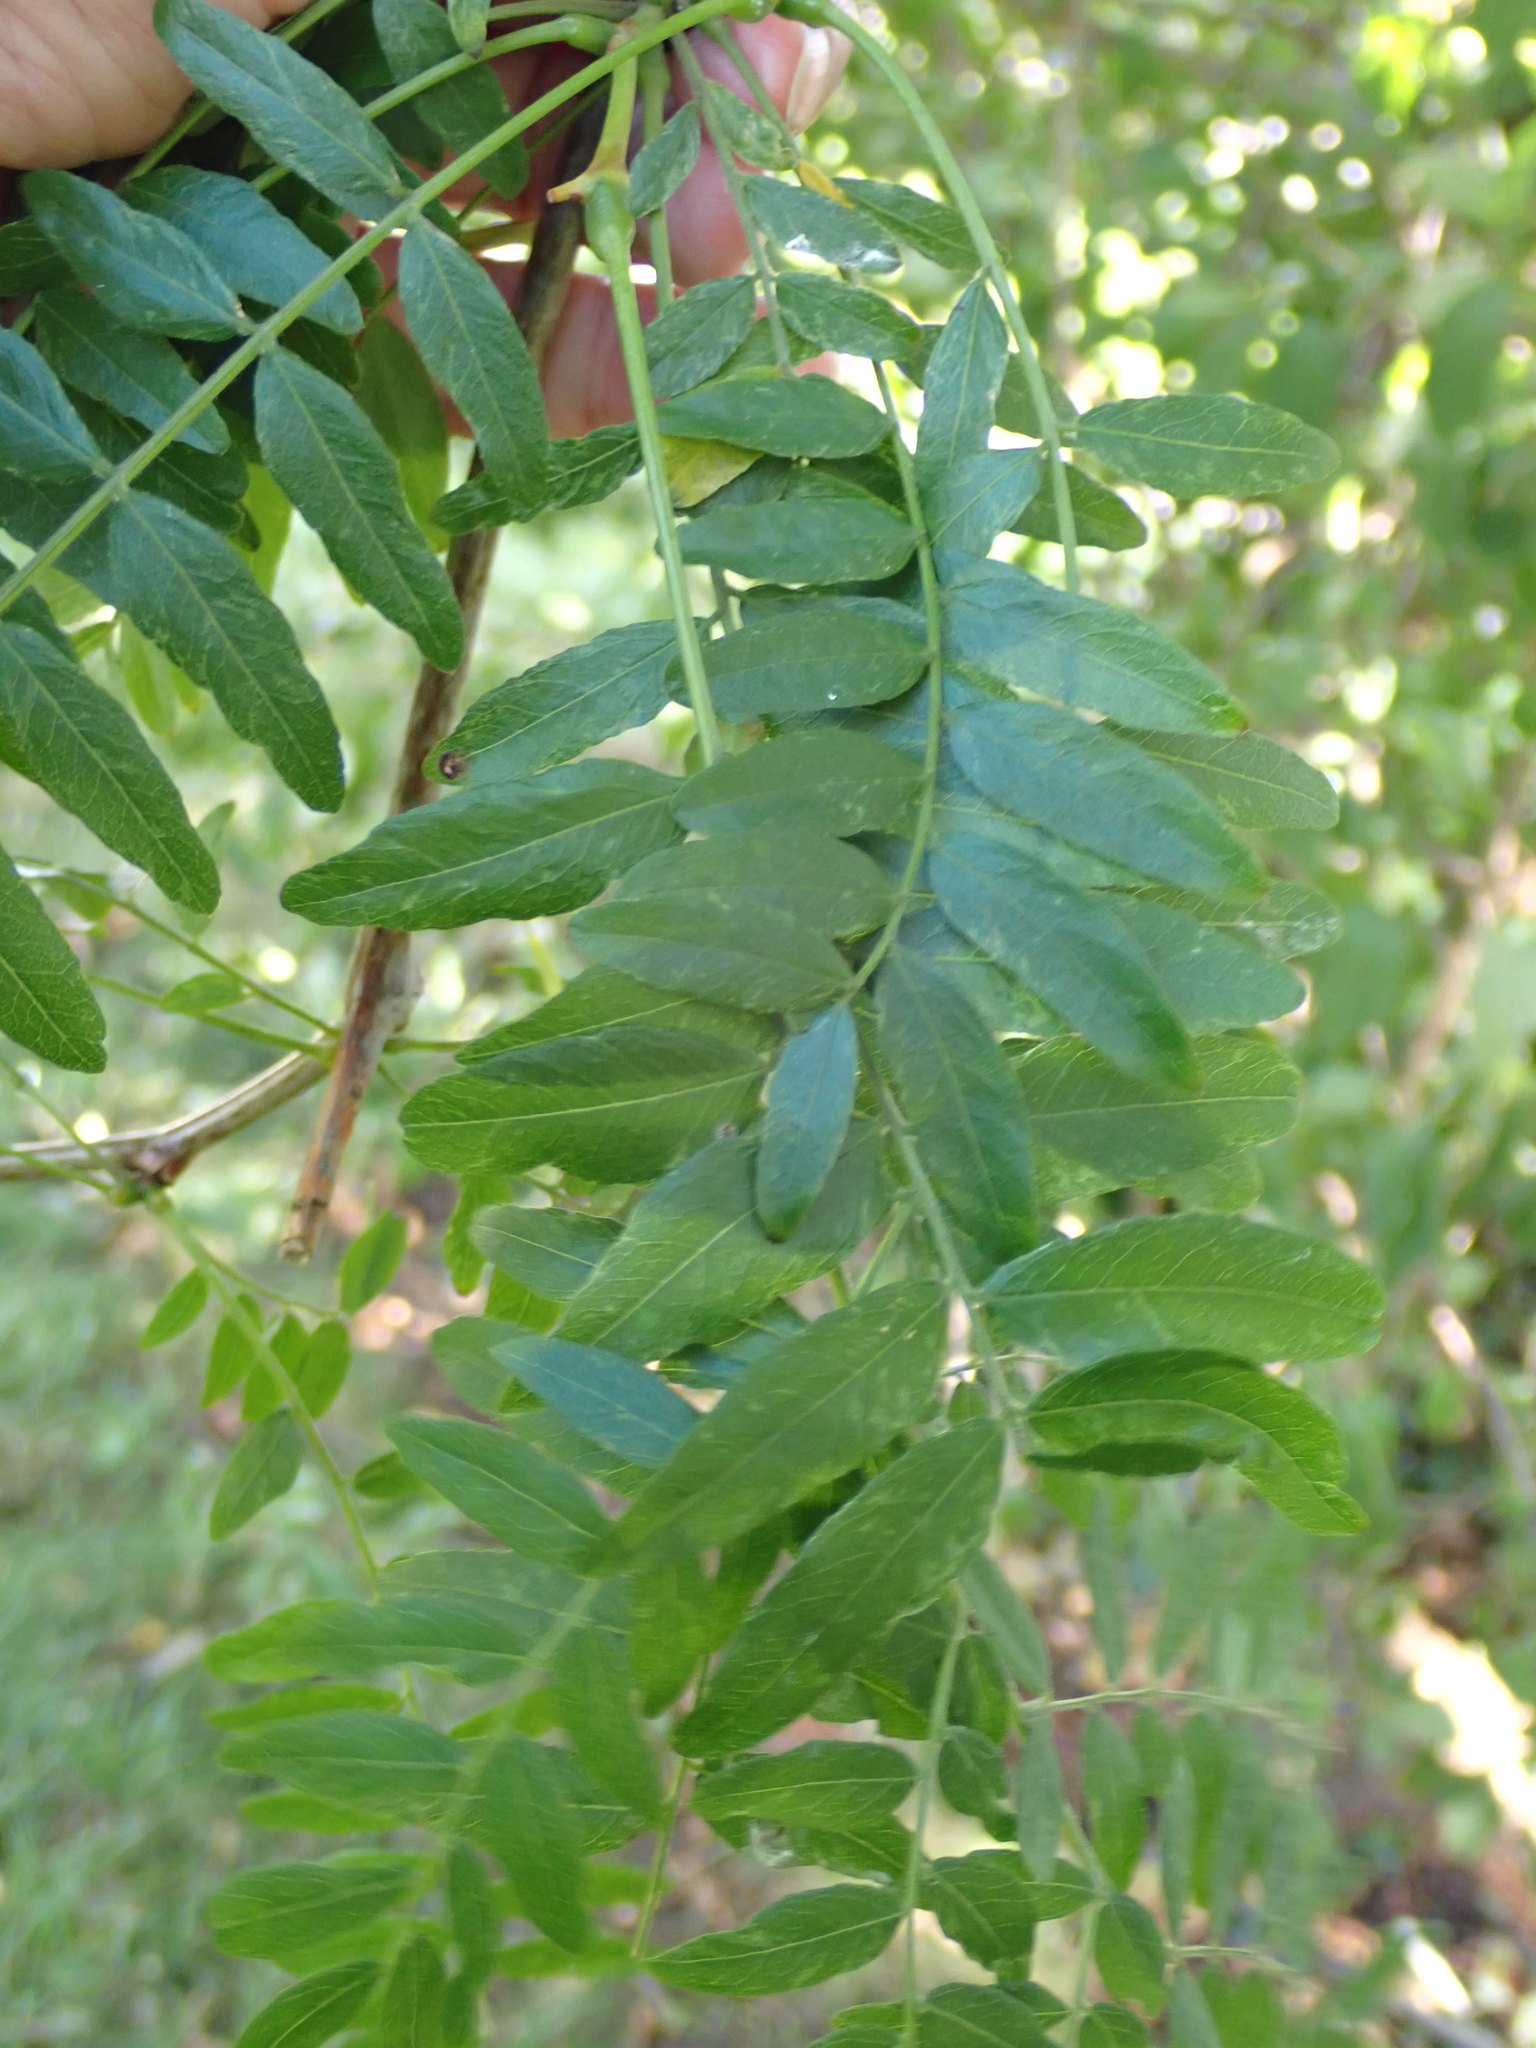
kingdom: Plantae
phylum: Tracheophyta
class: Magnoliopsida
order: Fabales
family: Fabaceae
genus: Gleditsia
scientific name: Gleditsia triacanthos
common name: Common honeylocust
